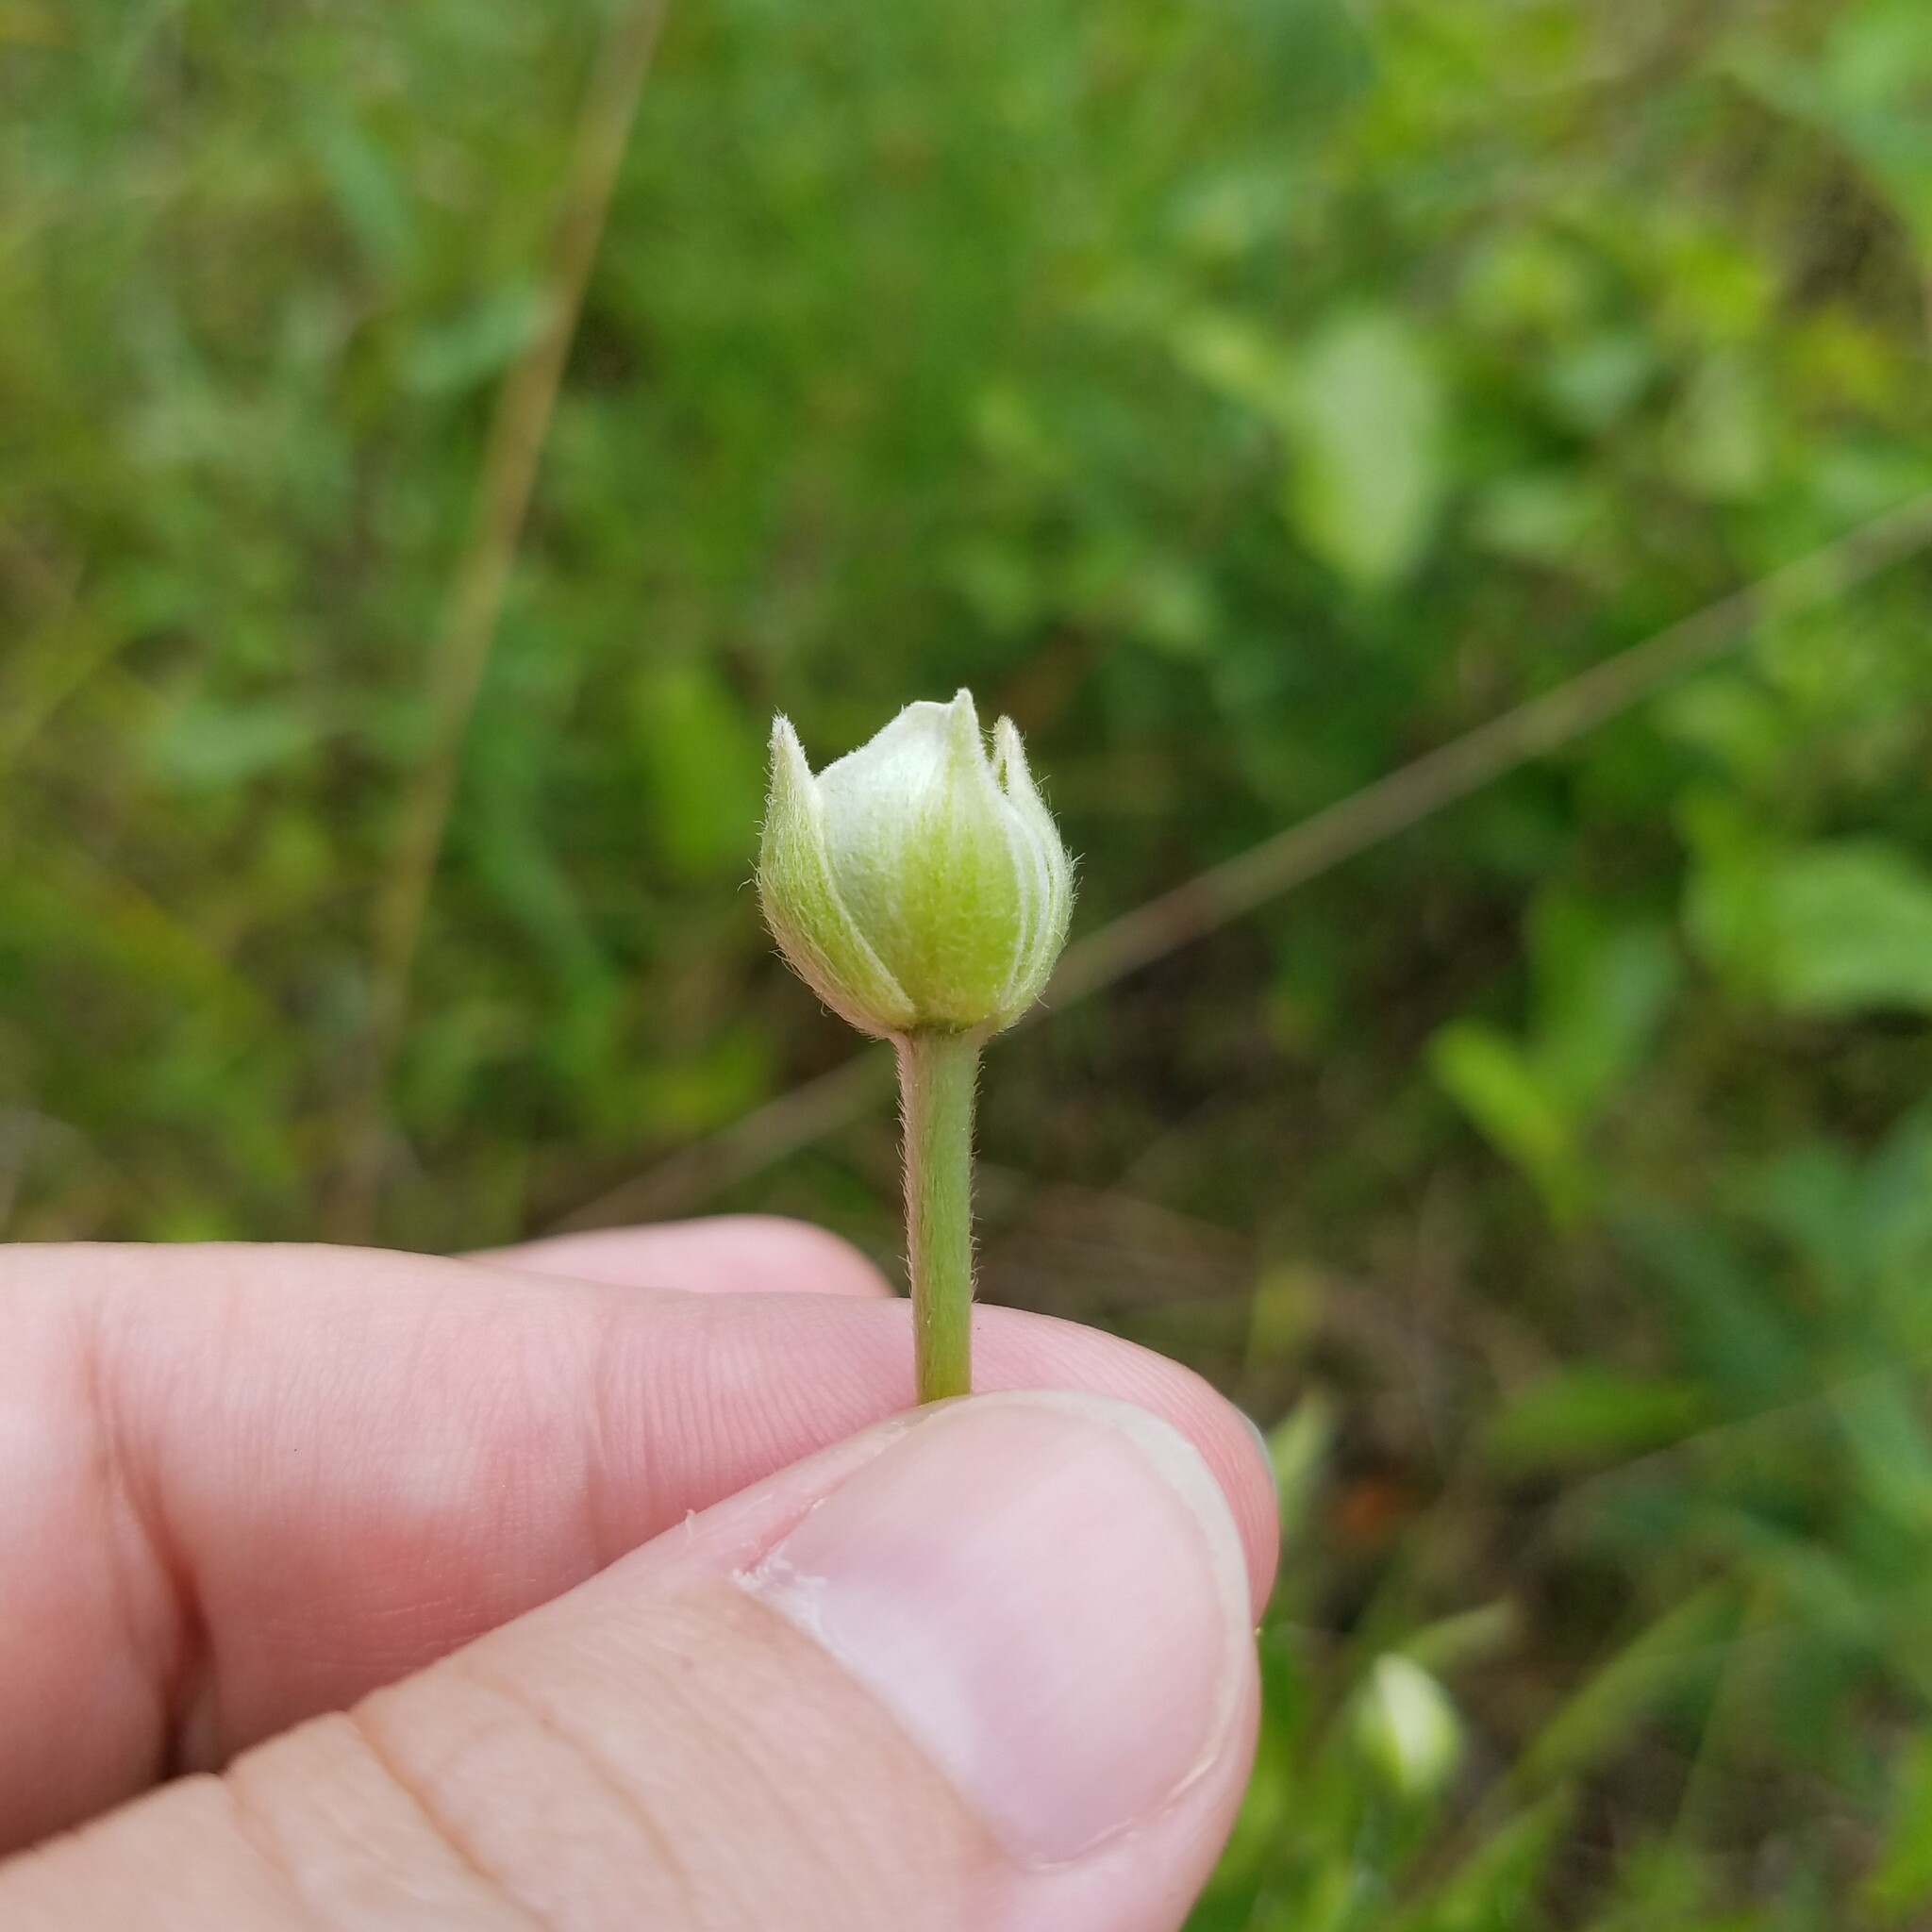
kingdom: Plantae
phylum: Tracheophyta
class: Magnoliopsida
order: Ranunculales
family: Ranunculaceae
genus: Anemone
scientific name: Anemone virginiana
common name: Tall anemone
